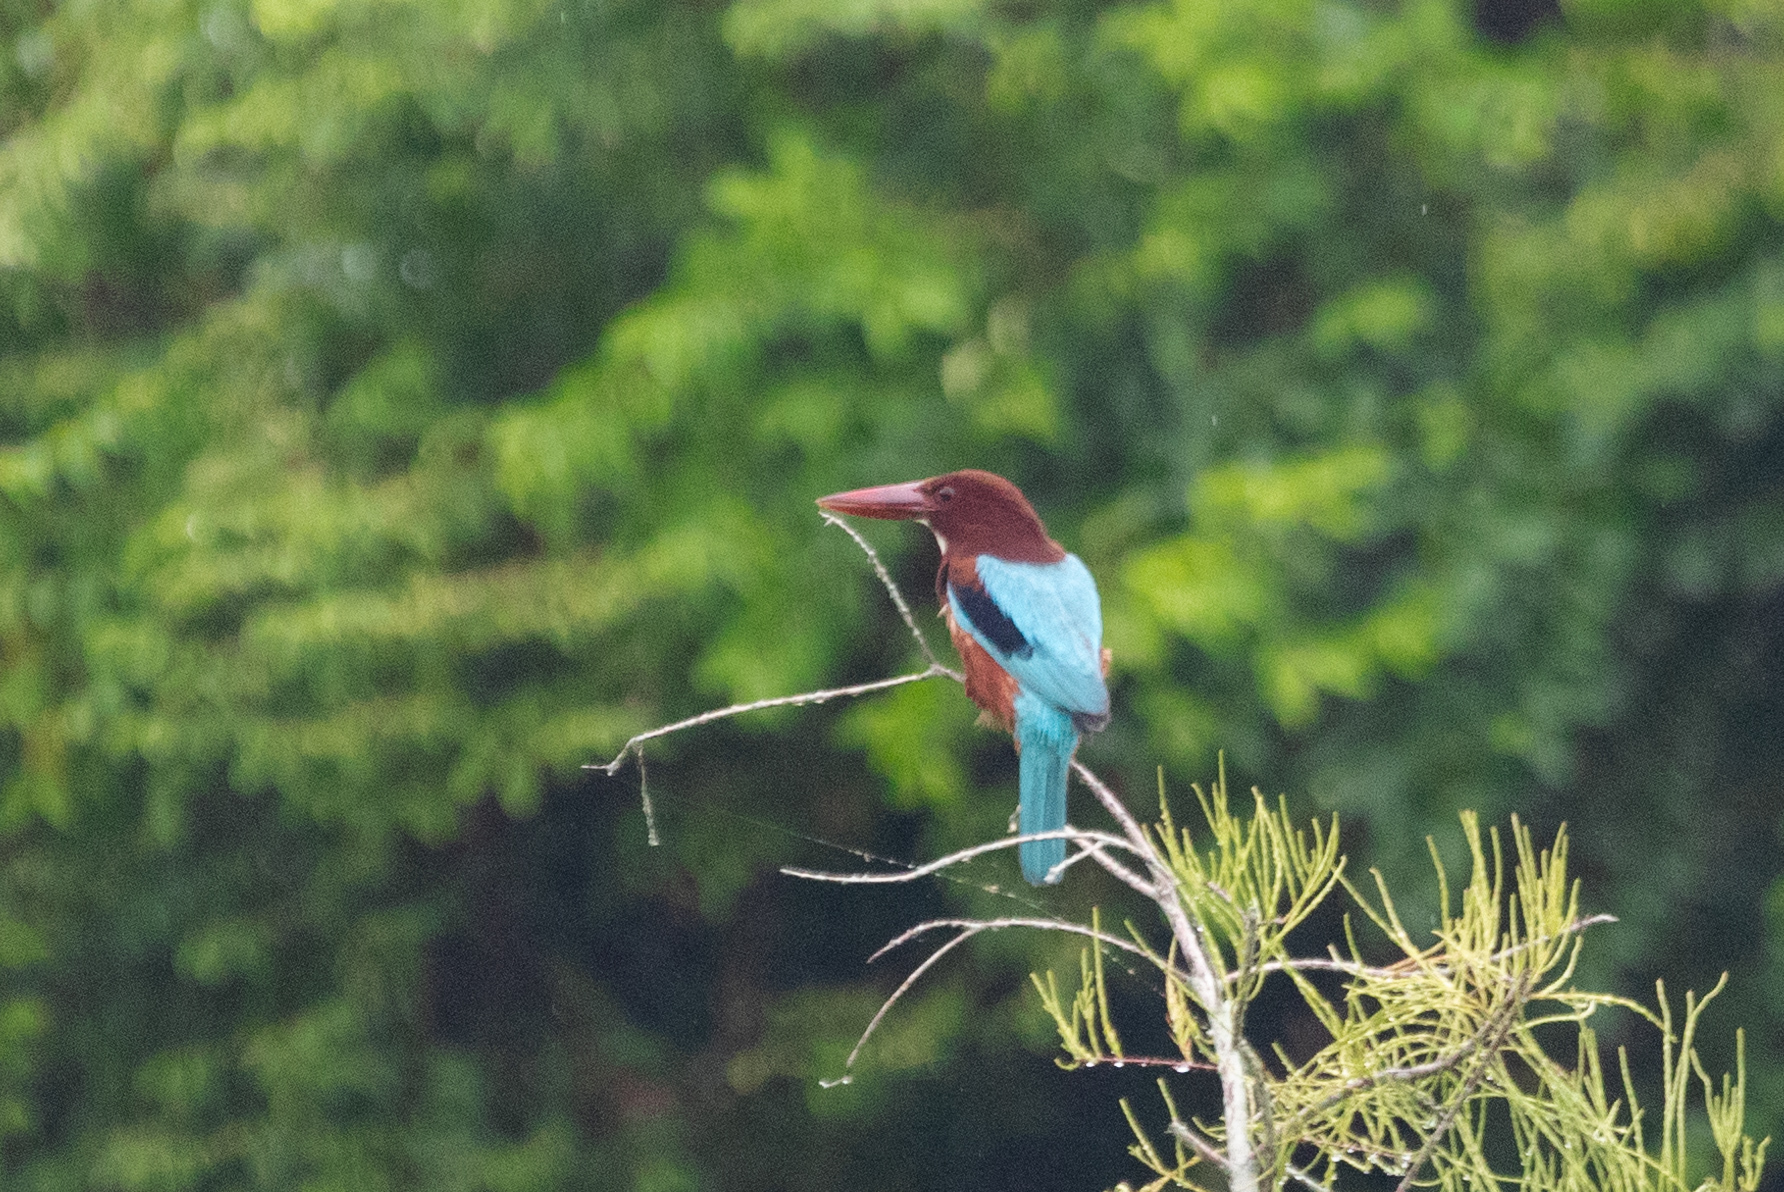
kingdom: Animalia
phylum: Chordata
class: Aves
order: Coraciiformes
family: Alcedinidae
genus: Halcyon
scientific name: Halcyon smyrnensis
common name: White-throated kingfisher
